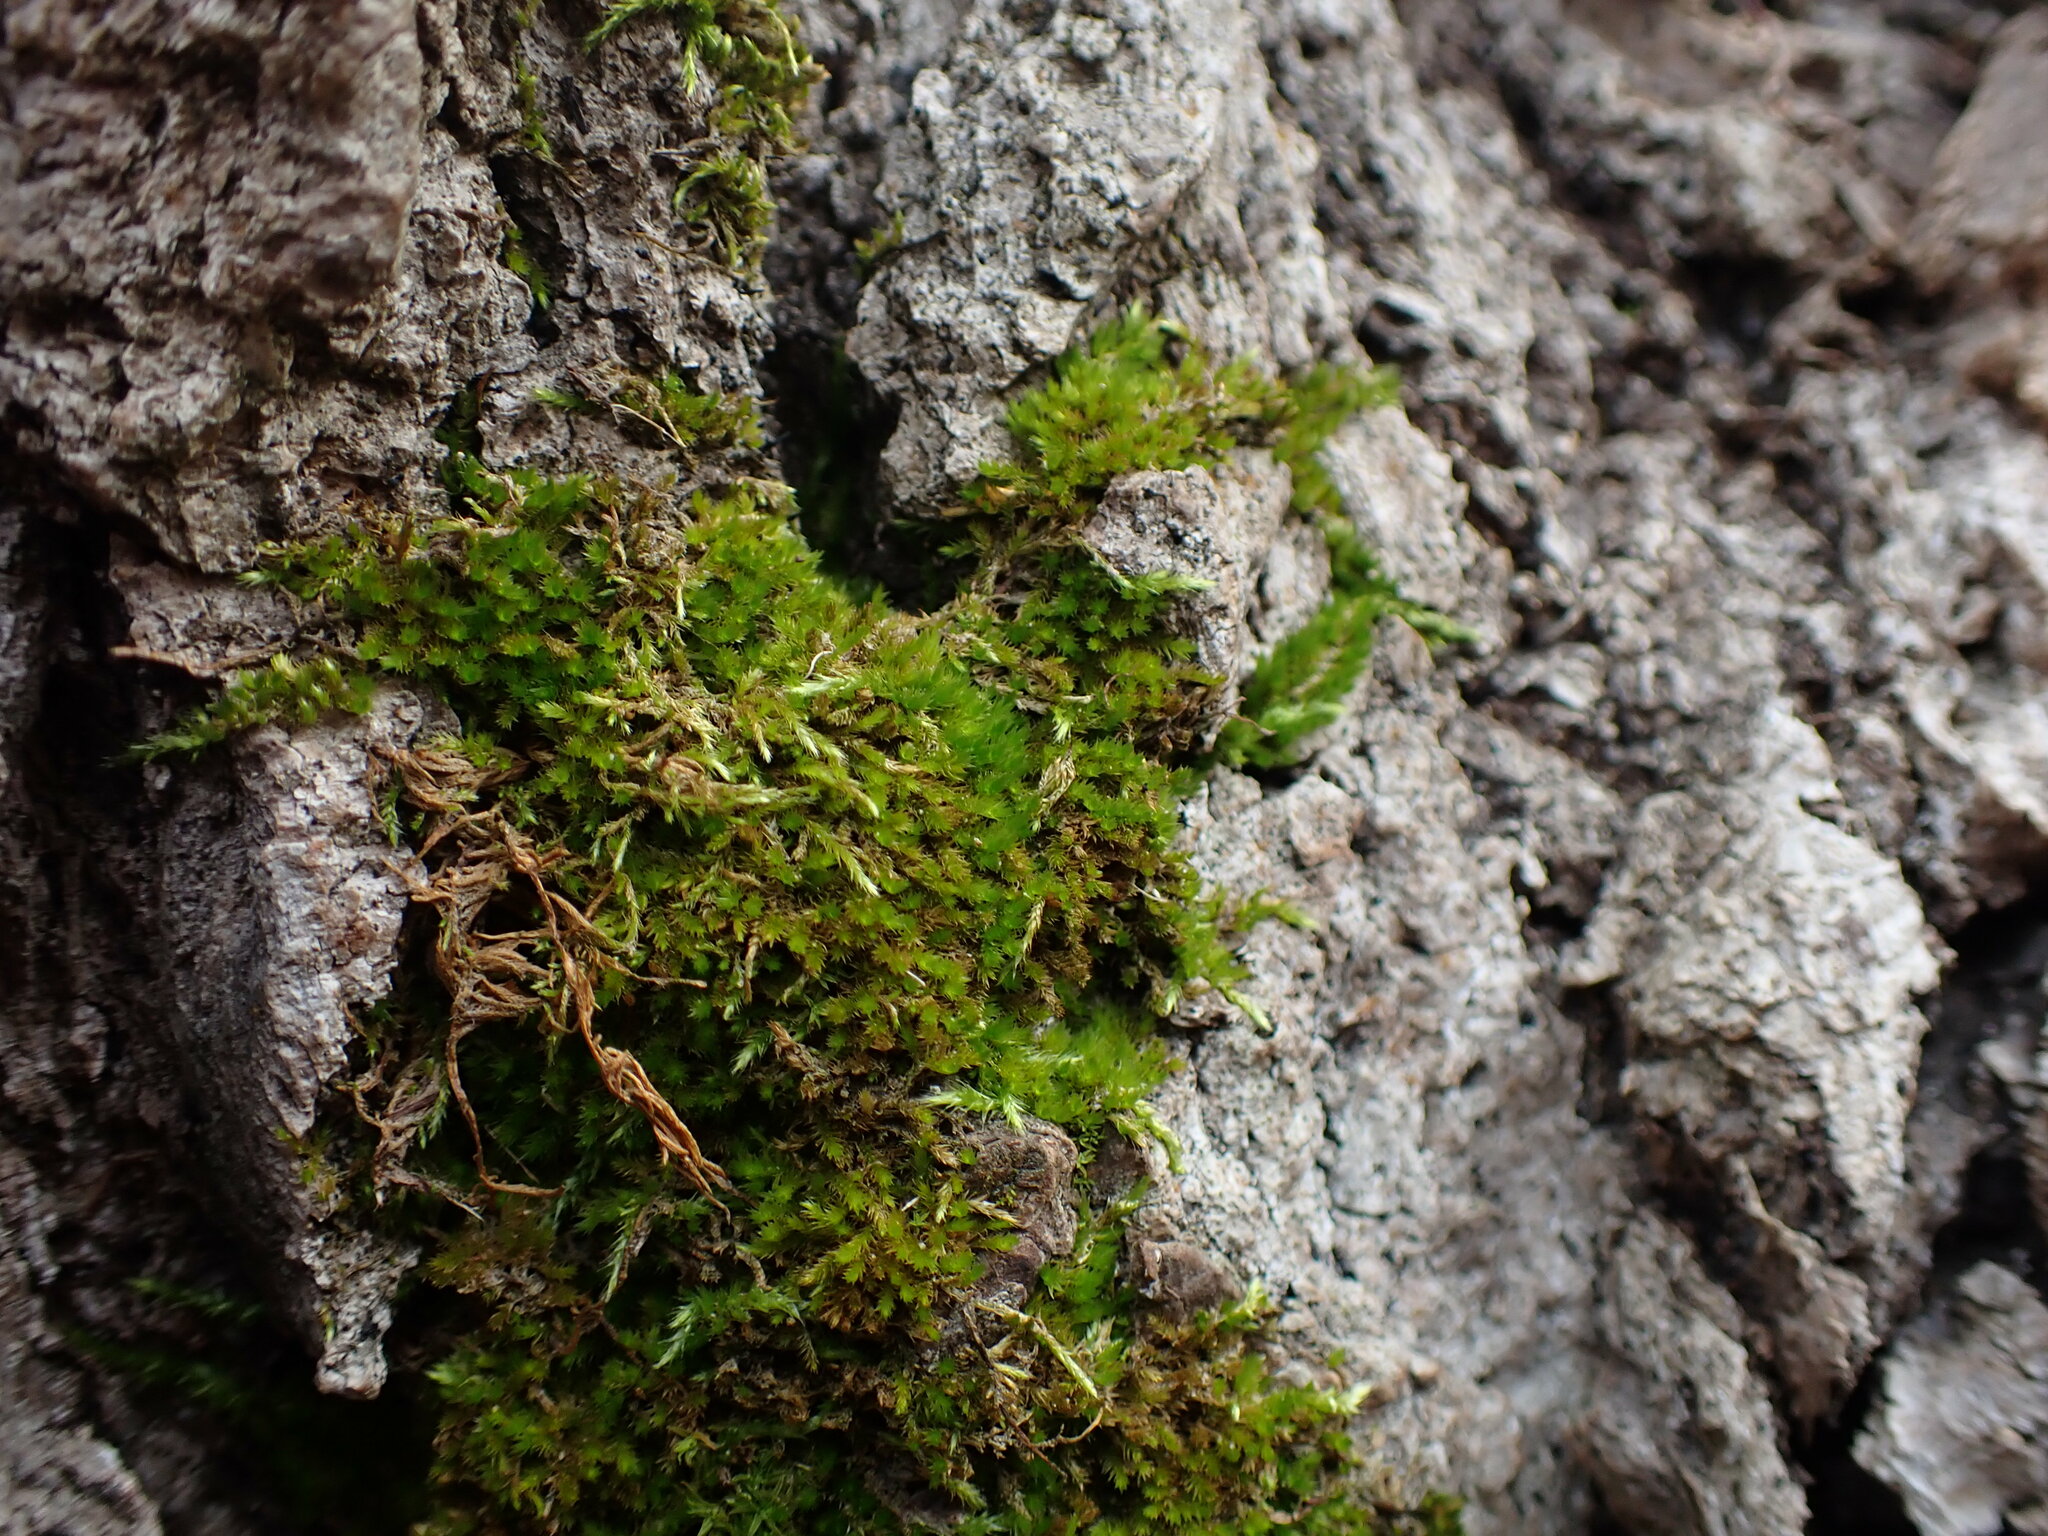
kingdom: Plantae
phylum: Bryophyta
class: Bryopsida
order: Hypnales
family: Brachytheciaceae
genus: Homalothecium
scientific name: Homalothecium nuttallii
